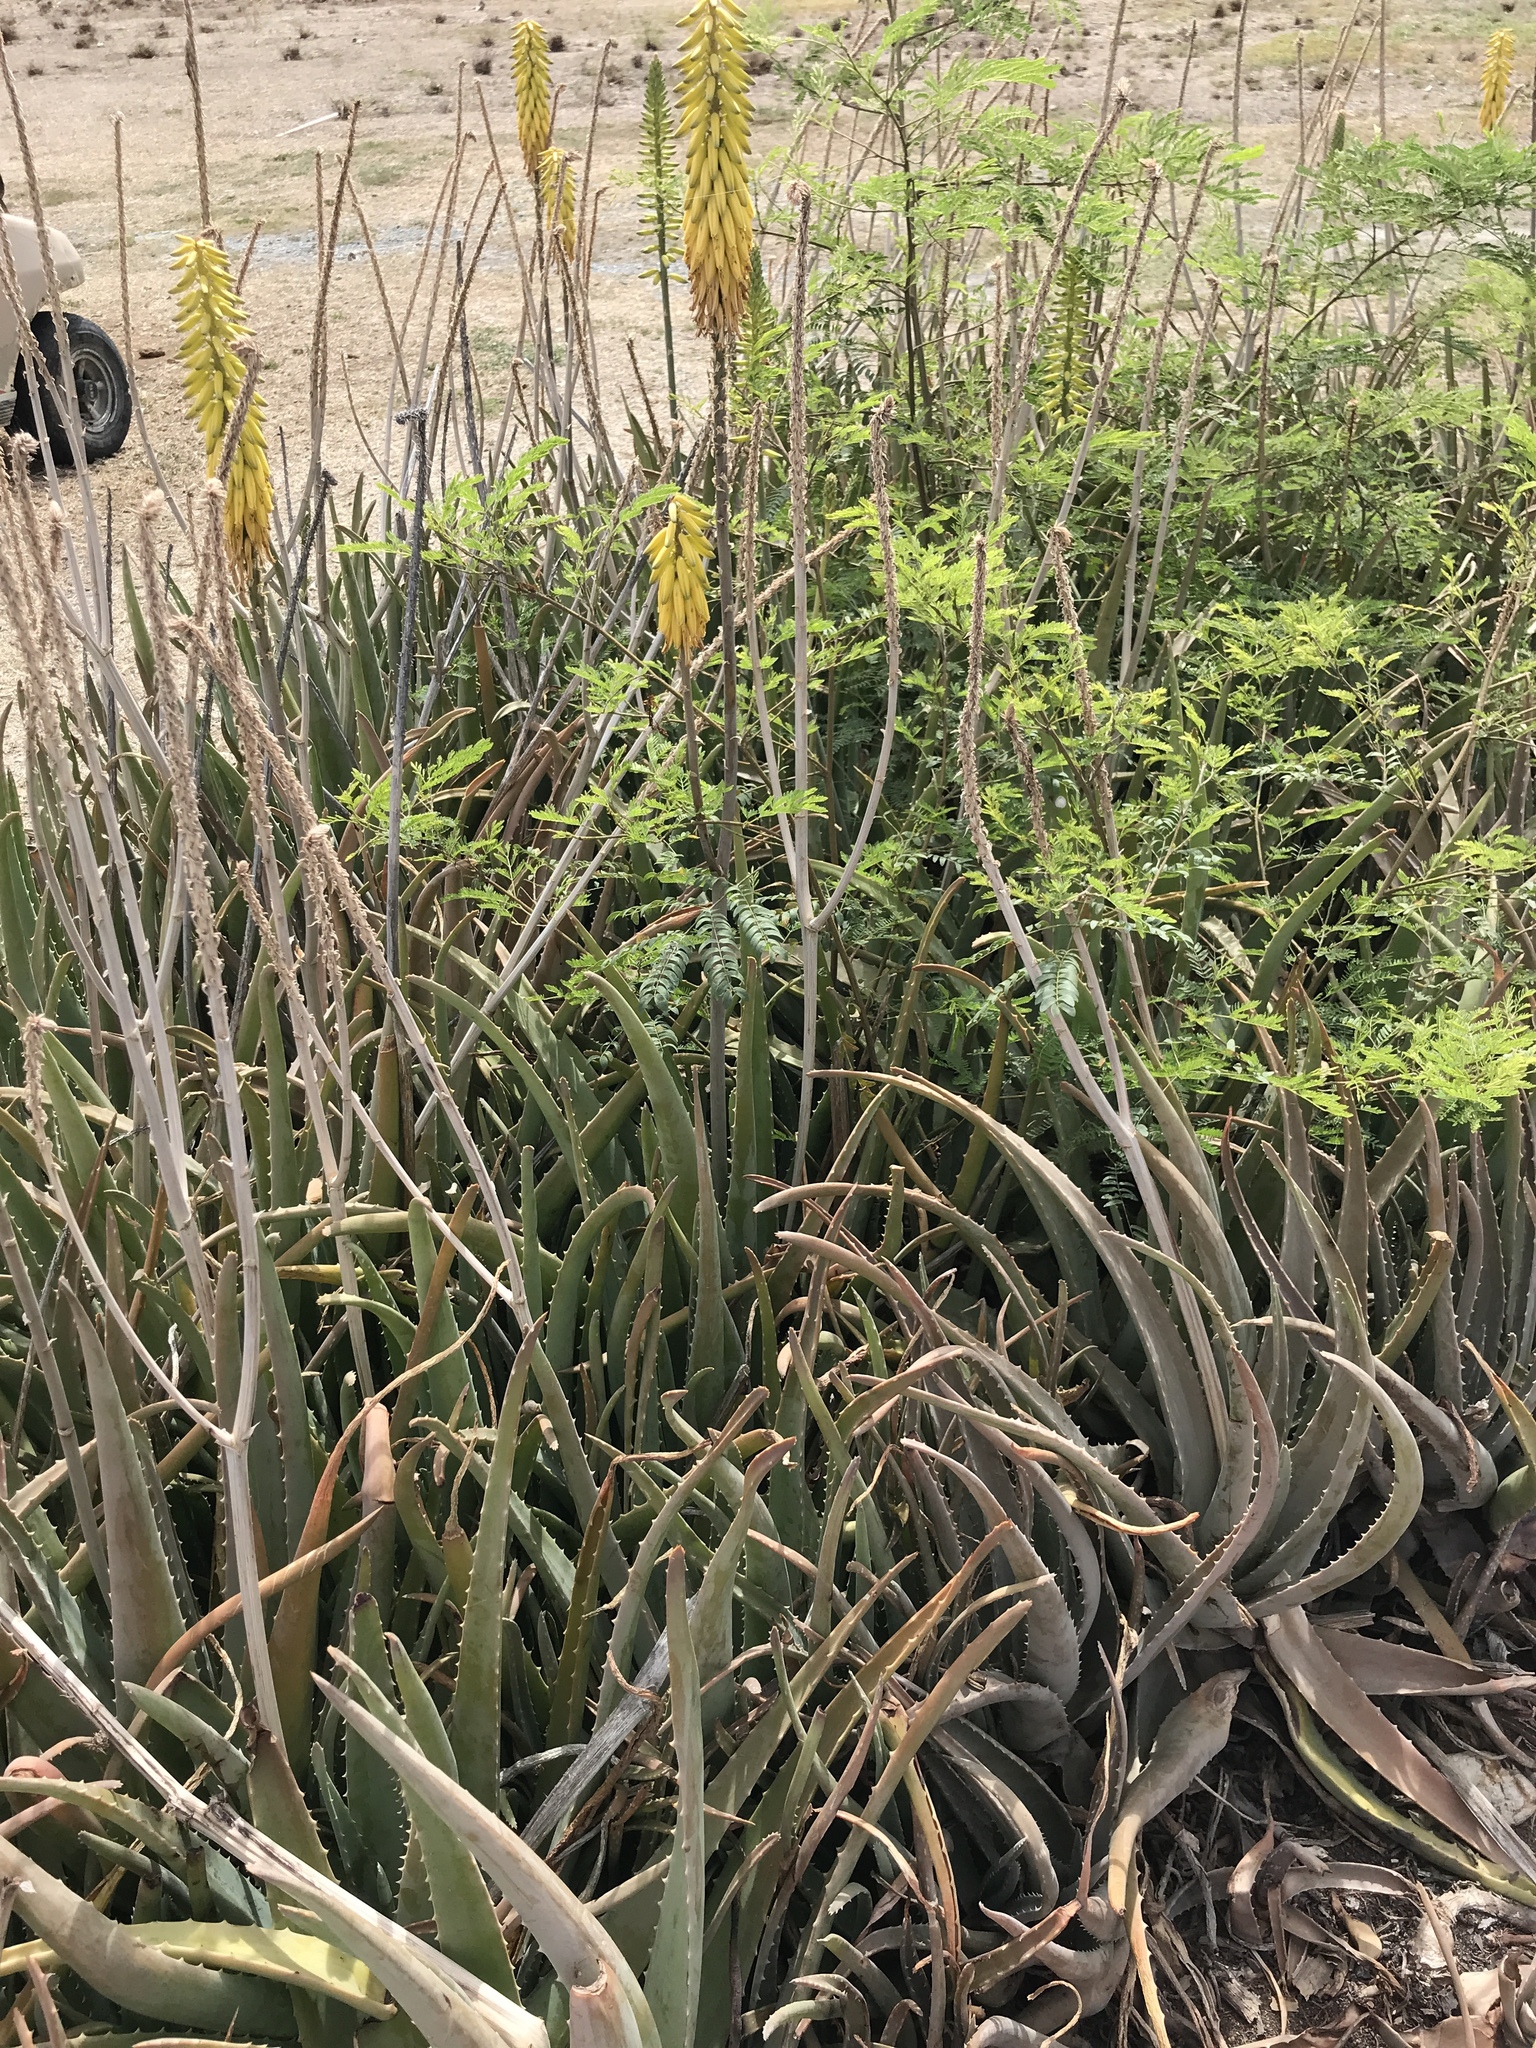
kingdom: Plantae
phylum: Tracheophyta
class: Liliopsida
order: Asparagales
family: Asphodelaceae
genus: Aloe
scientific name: Aloe vera
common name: Barbados aloe
